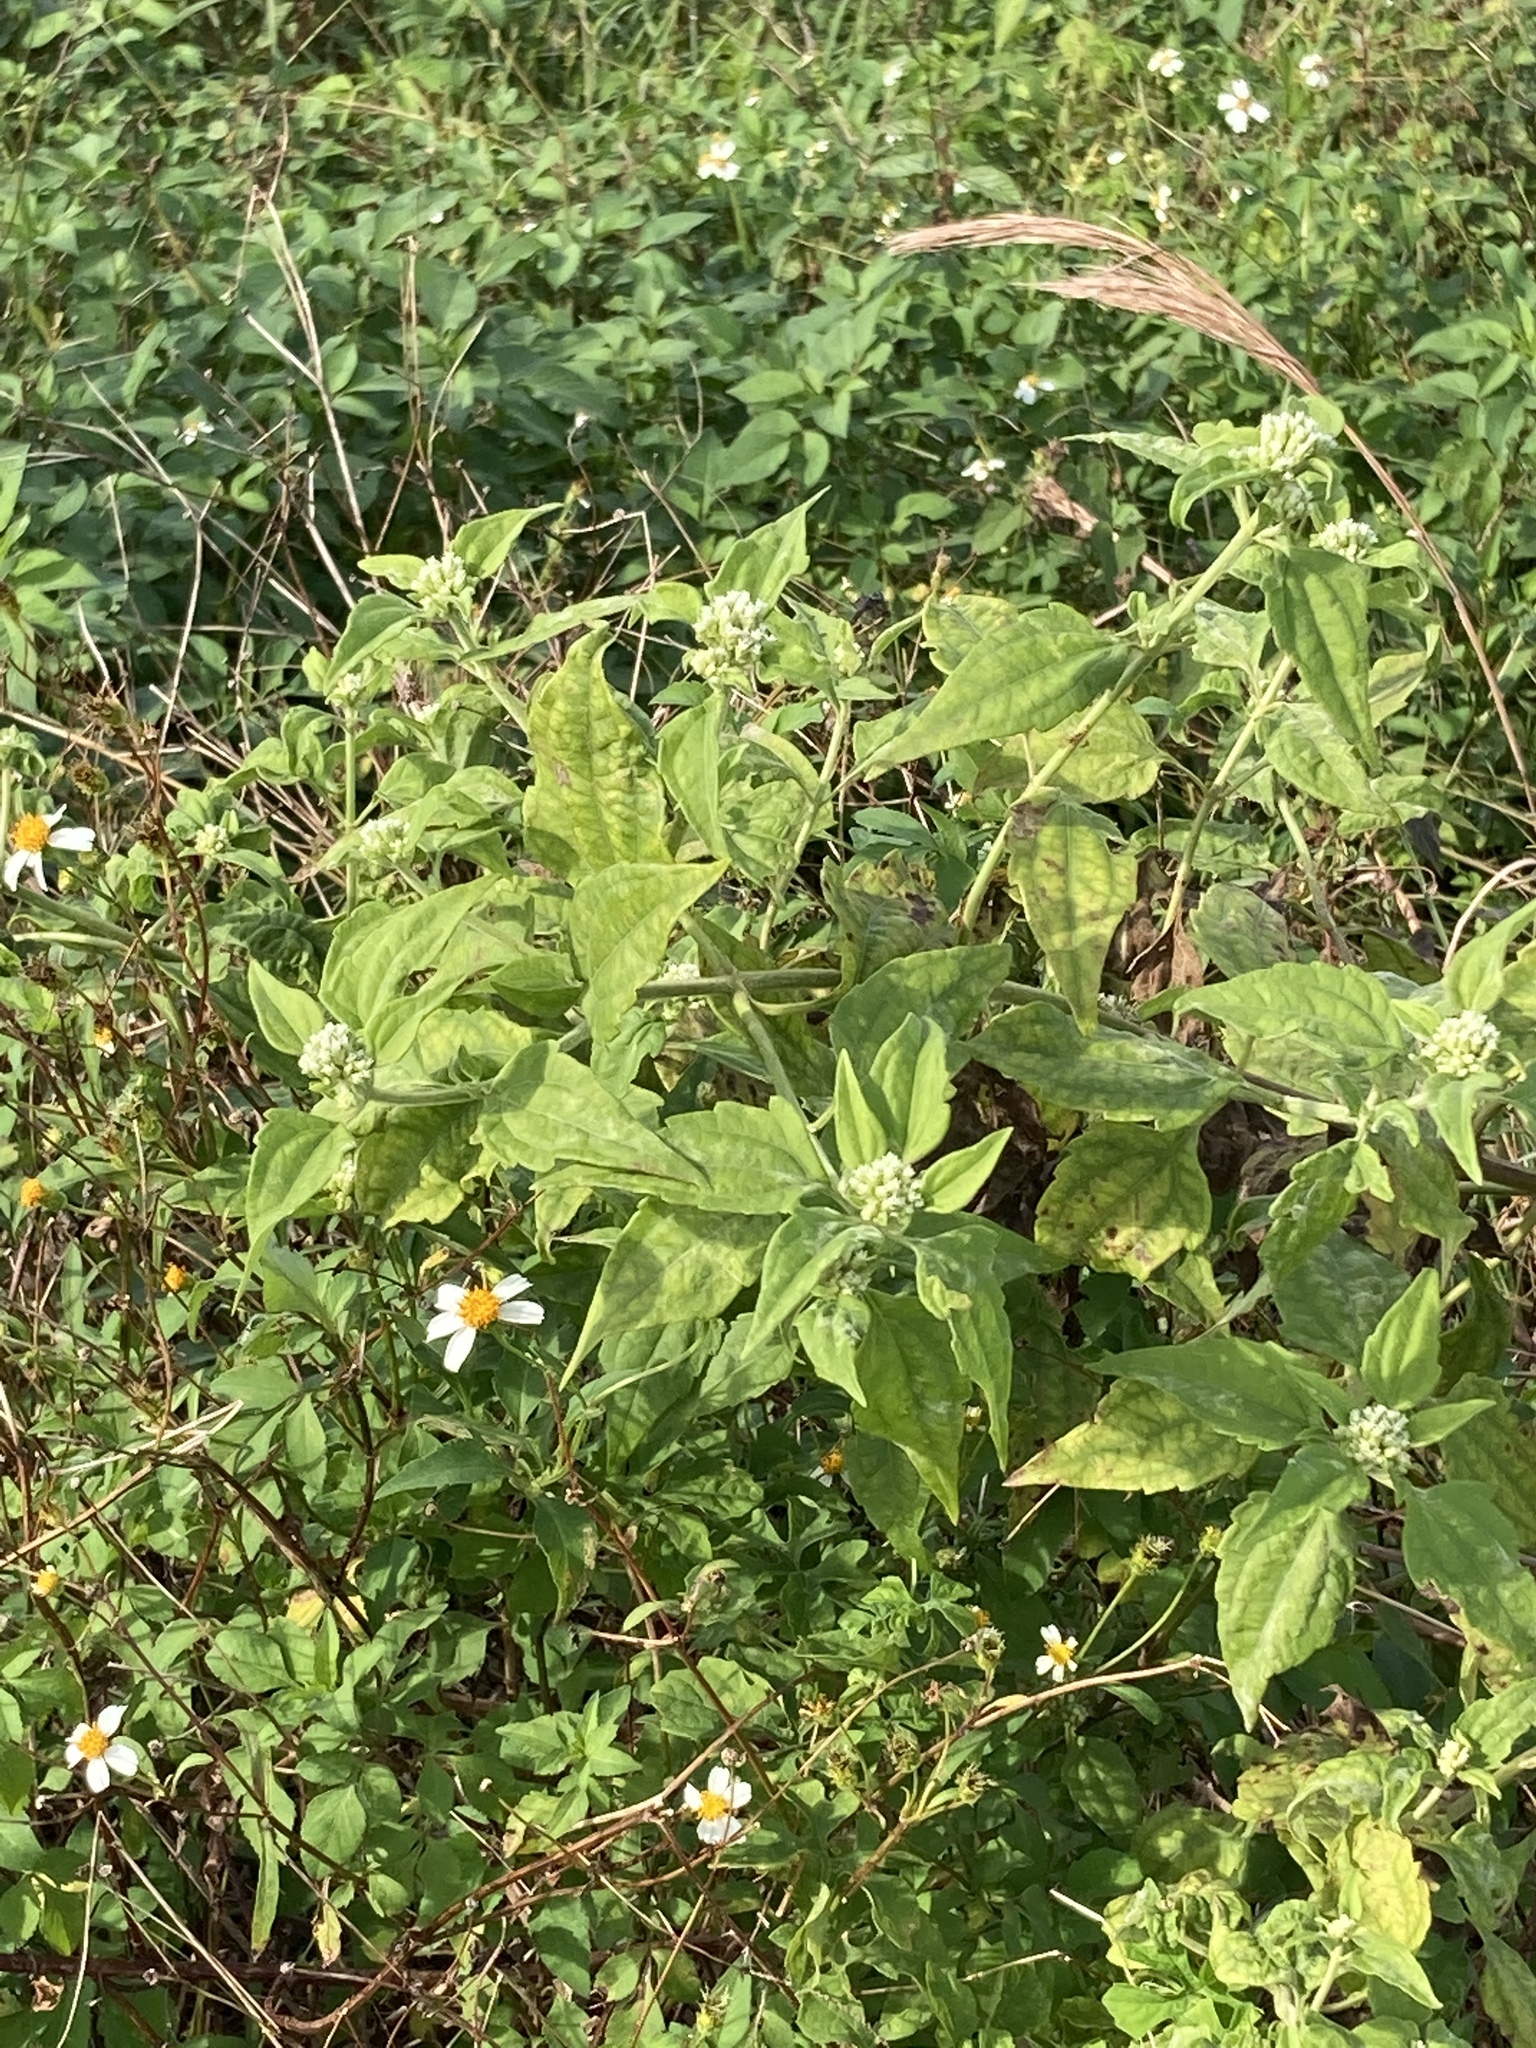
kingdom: Plantae
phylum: Tracheophyta
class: Magnoliopsida
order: Asterales
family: Asteraceae
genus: Chromolaena
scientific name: Chromolaena odorata
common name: Siamweed
